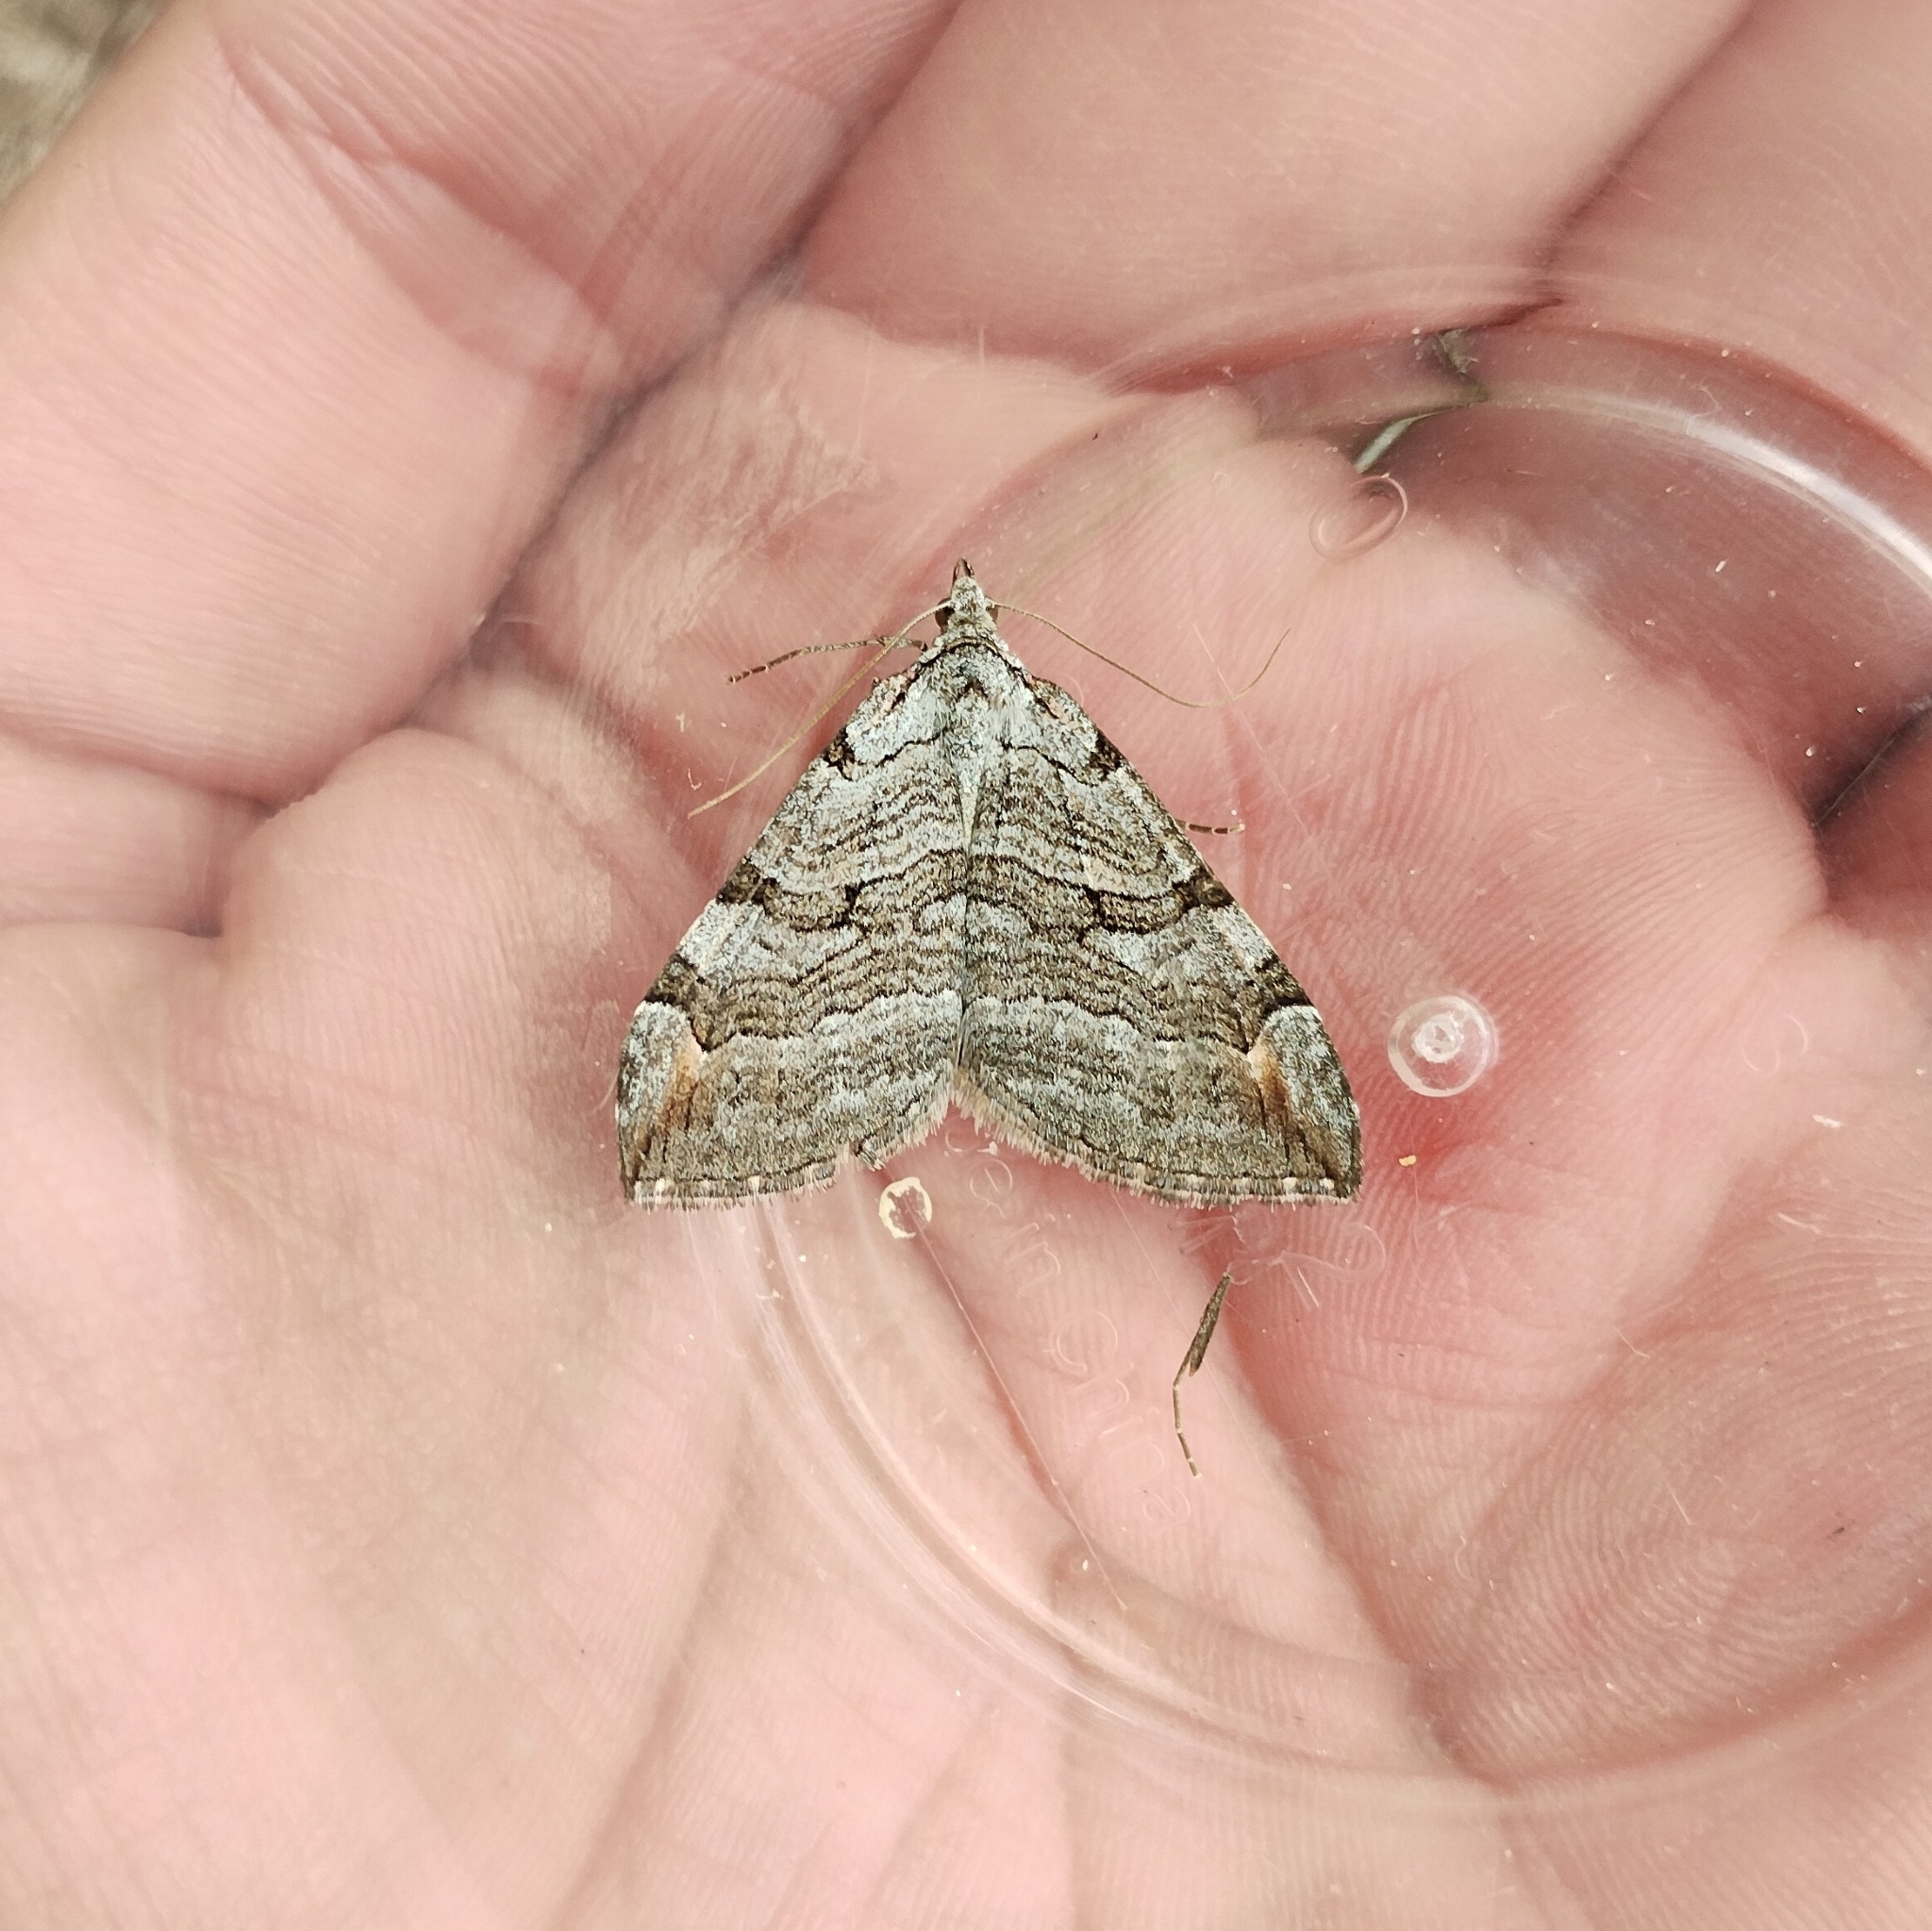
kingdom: Animalia
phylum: Arthropoda
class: Insecta
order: Lepidoptera
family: Geometridae
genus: Aplocera
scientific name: Aplocera plagiata
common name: Treble-bar
